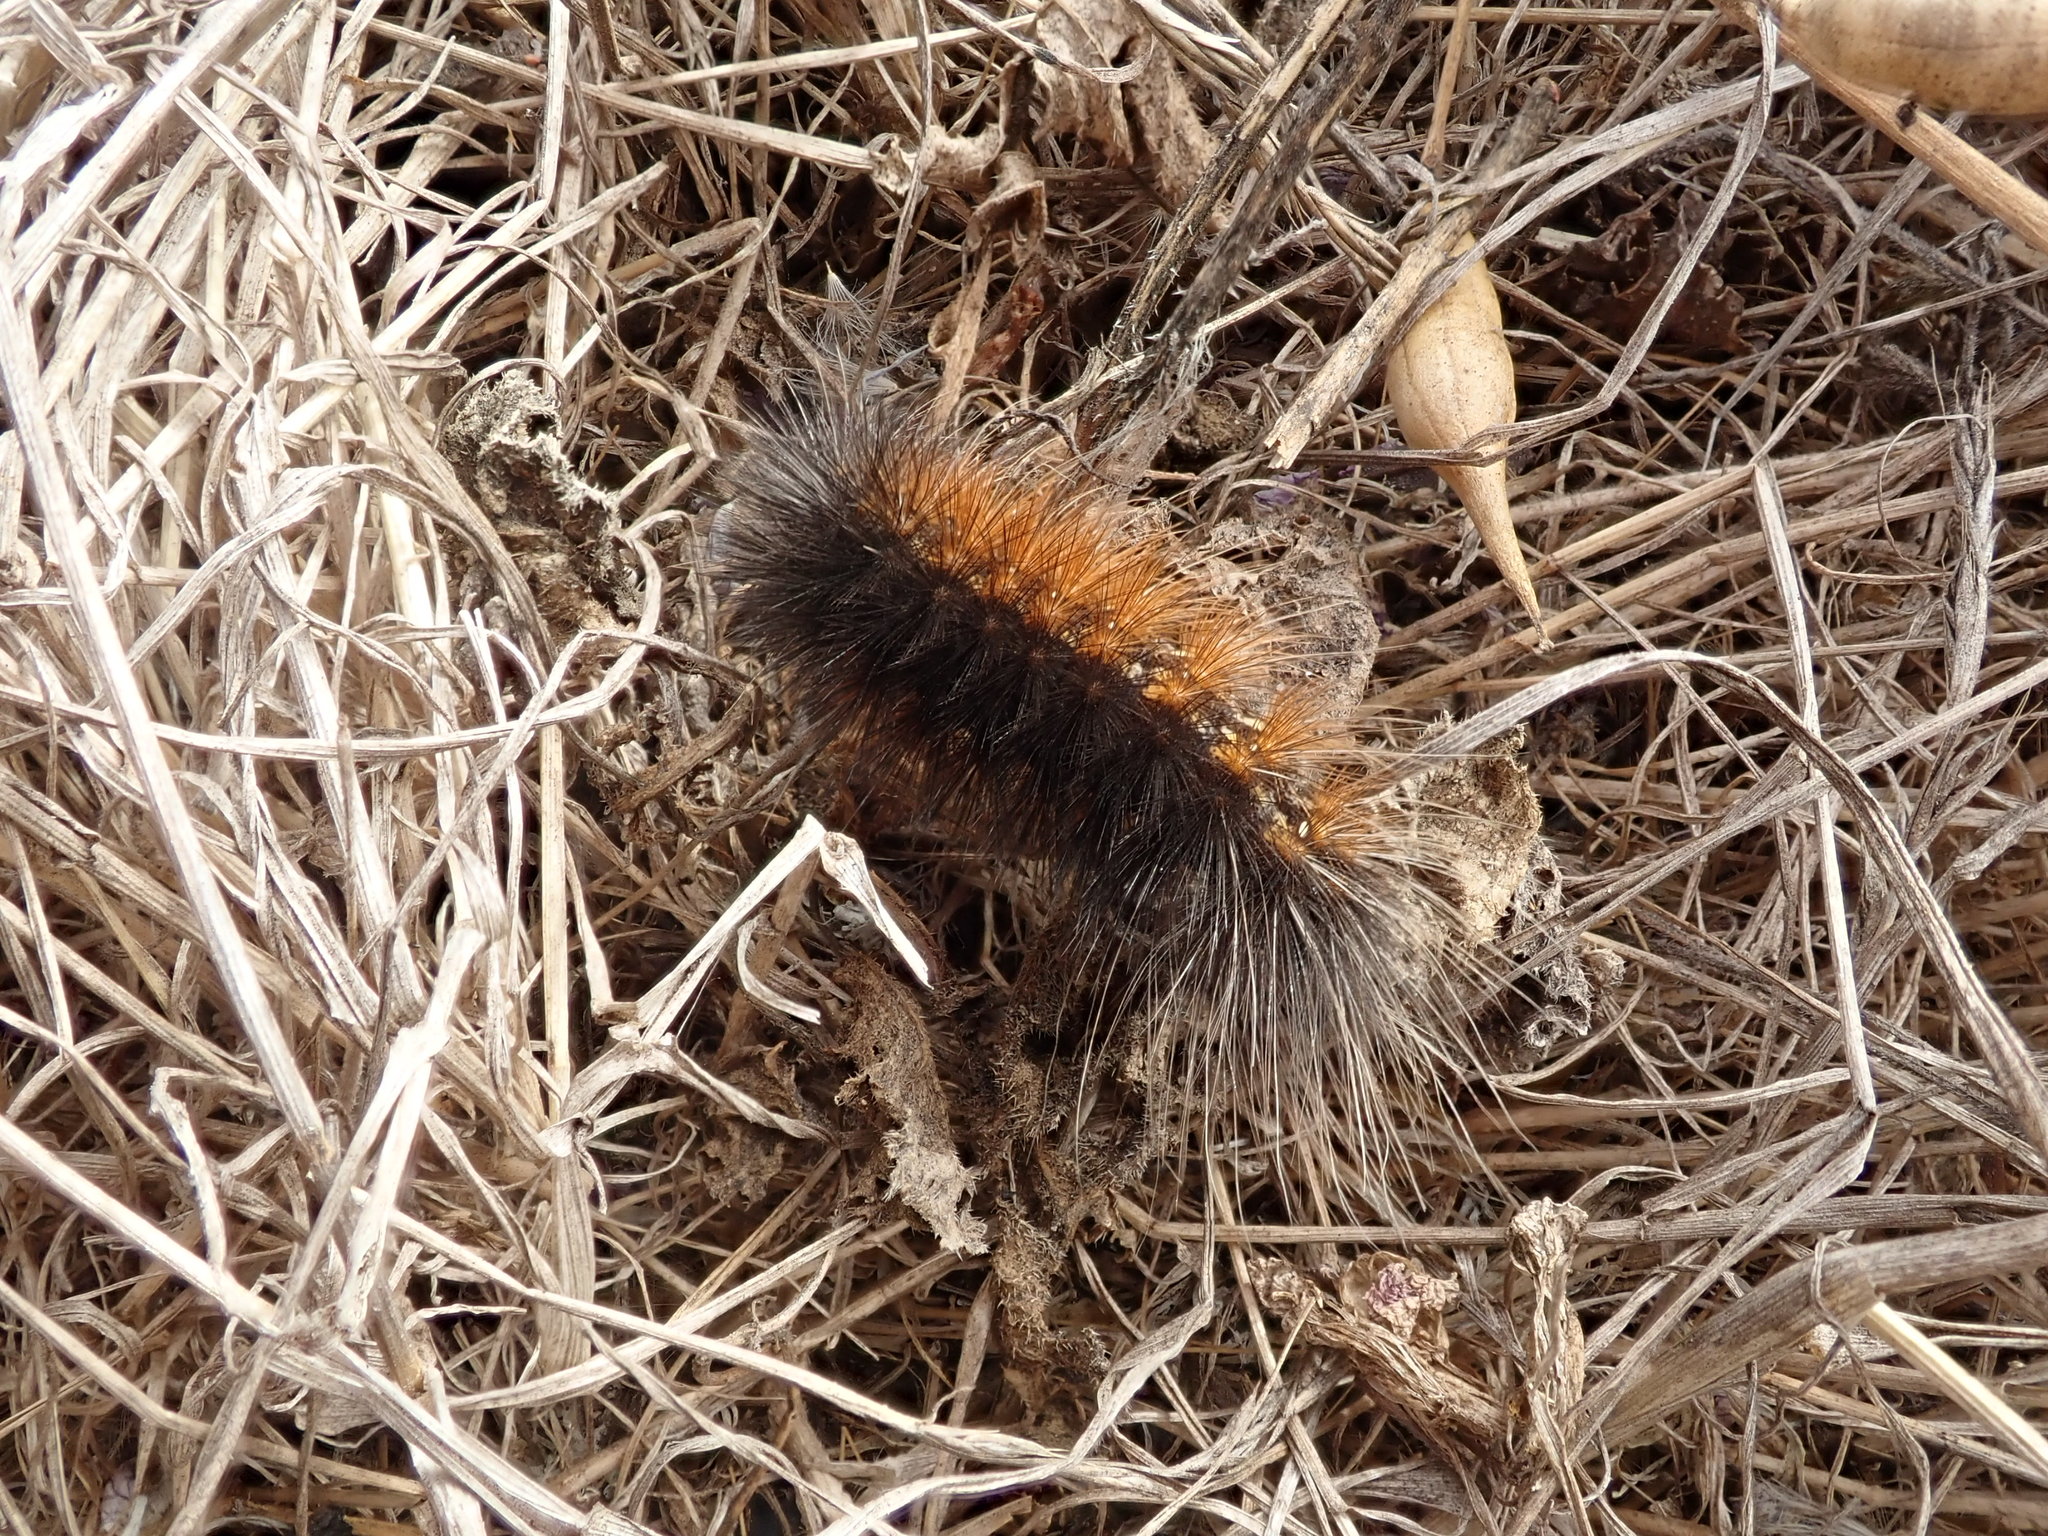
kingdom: Animalia
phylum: Arthropoda
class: Insecta
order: Lepidoptera
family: Erebidae
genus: Estigmene
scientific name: Estigmene acrea
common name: Salt marsh moth
